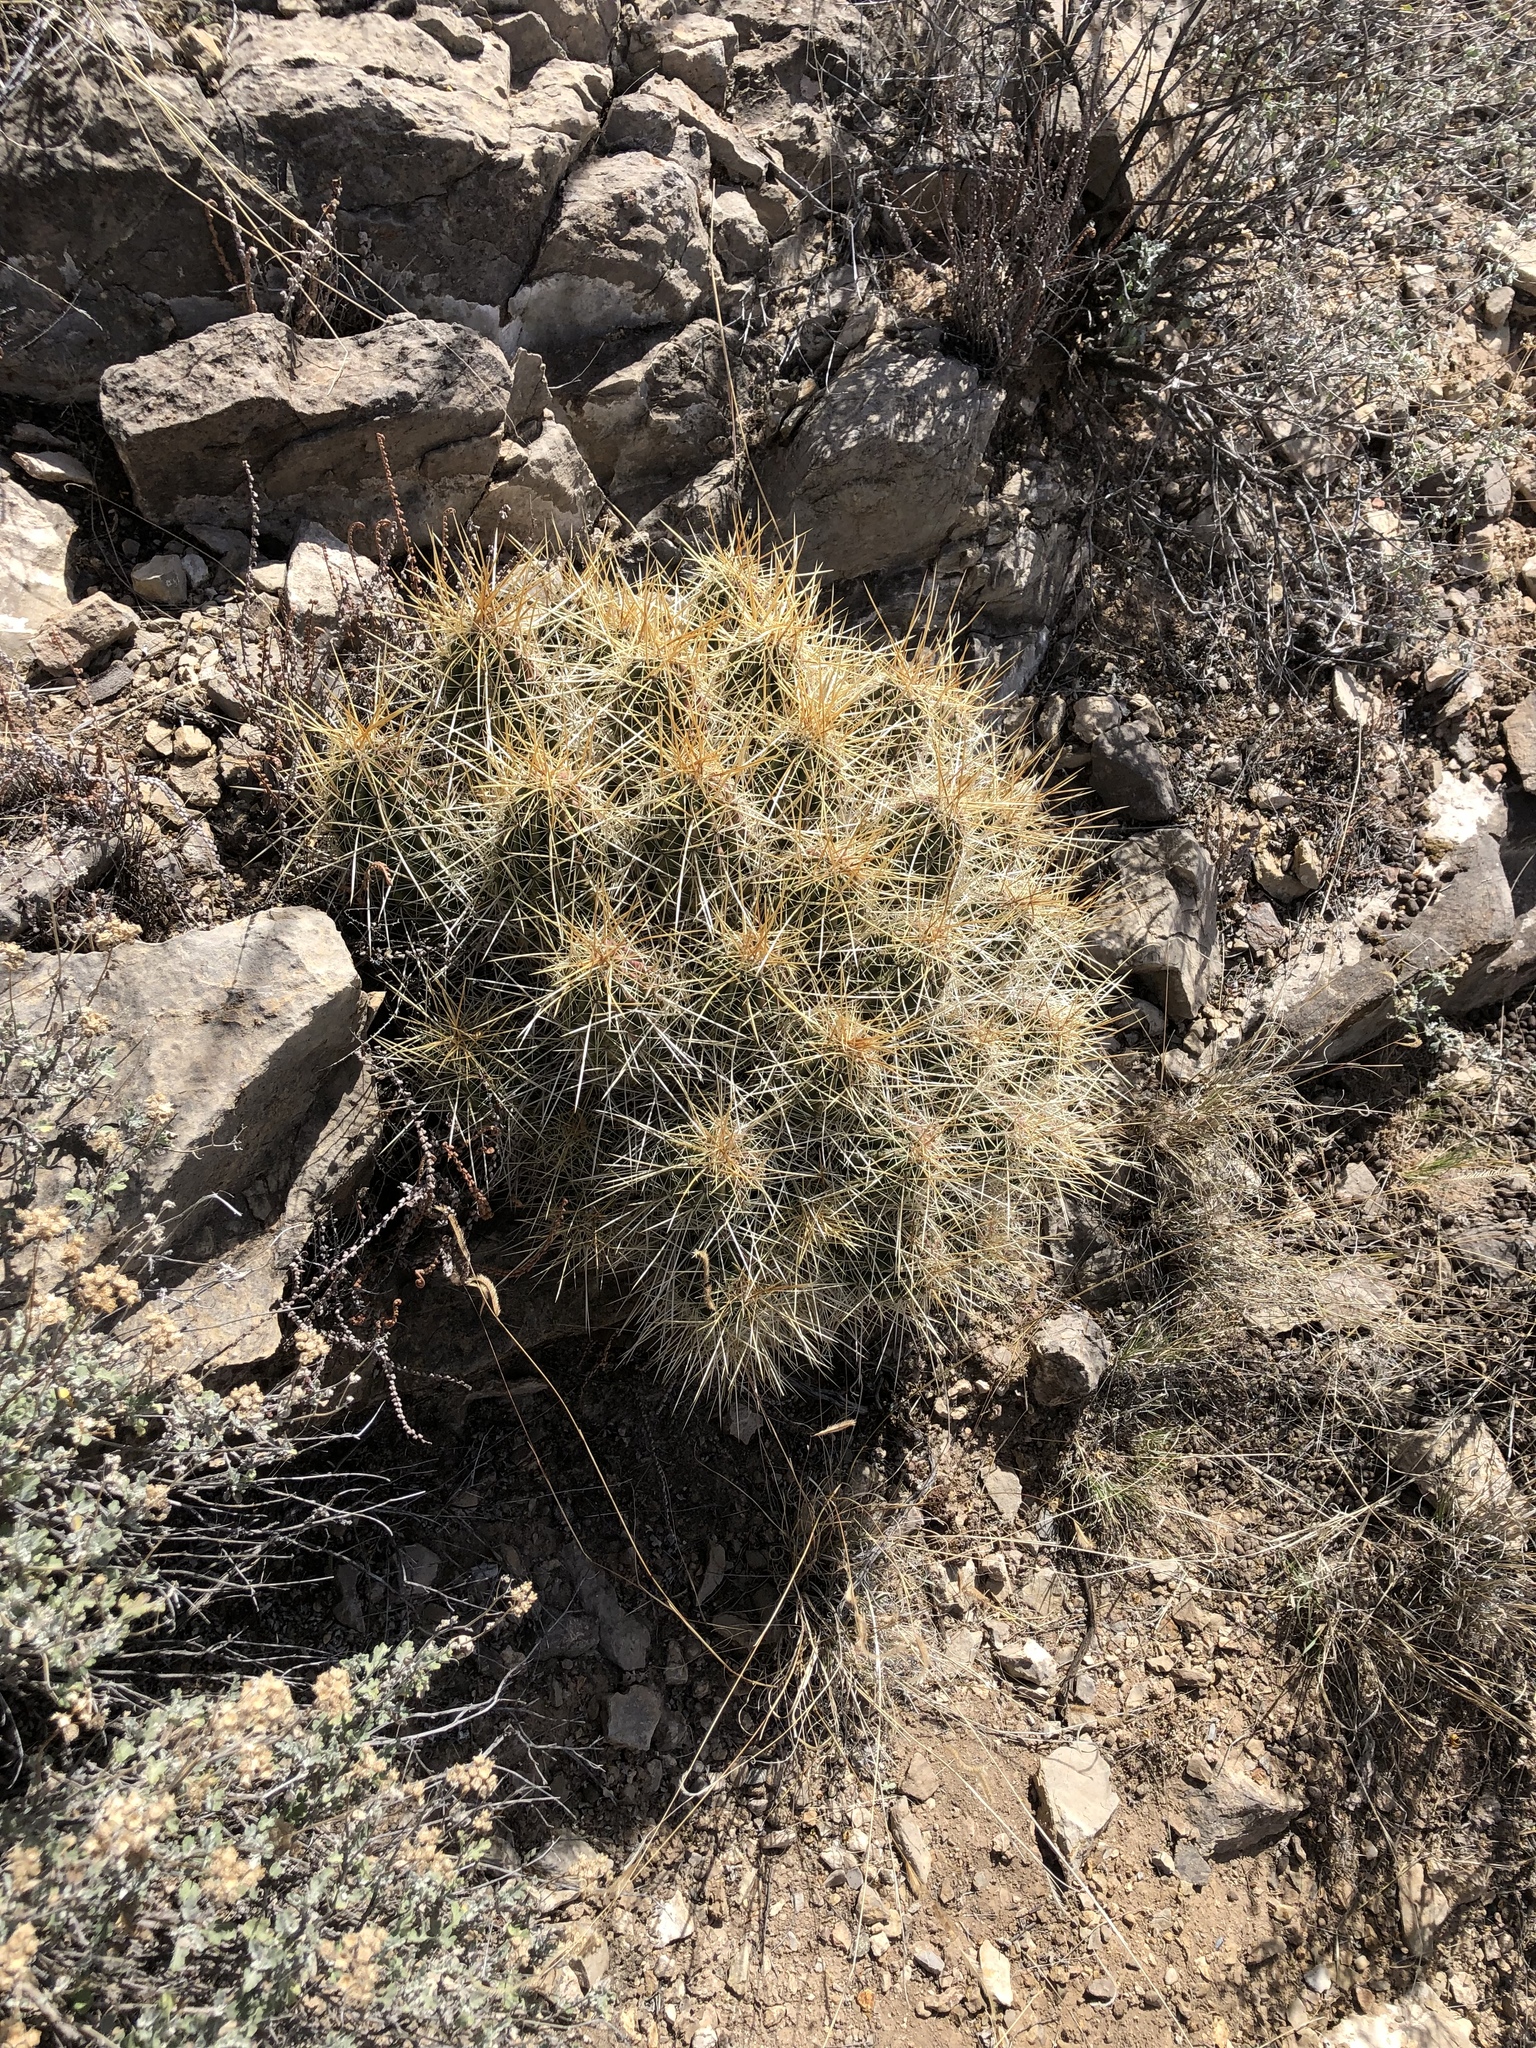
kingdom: Plantae
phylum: Tracheophyta
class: Magnoliopsida
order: Caryophyllales
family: Cactaceae
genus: Echinocereus
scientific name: Echinocereus stramineus
